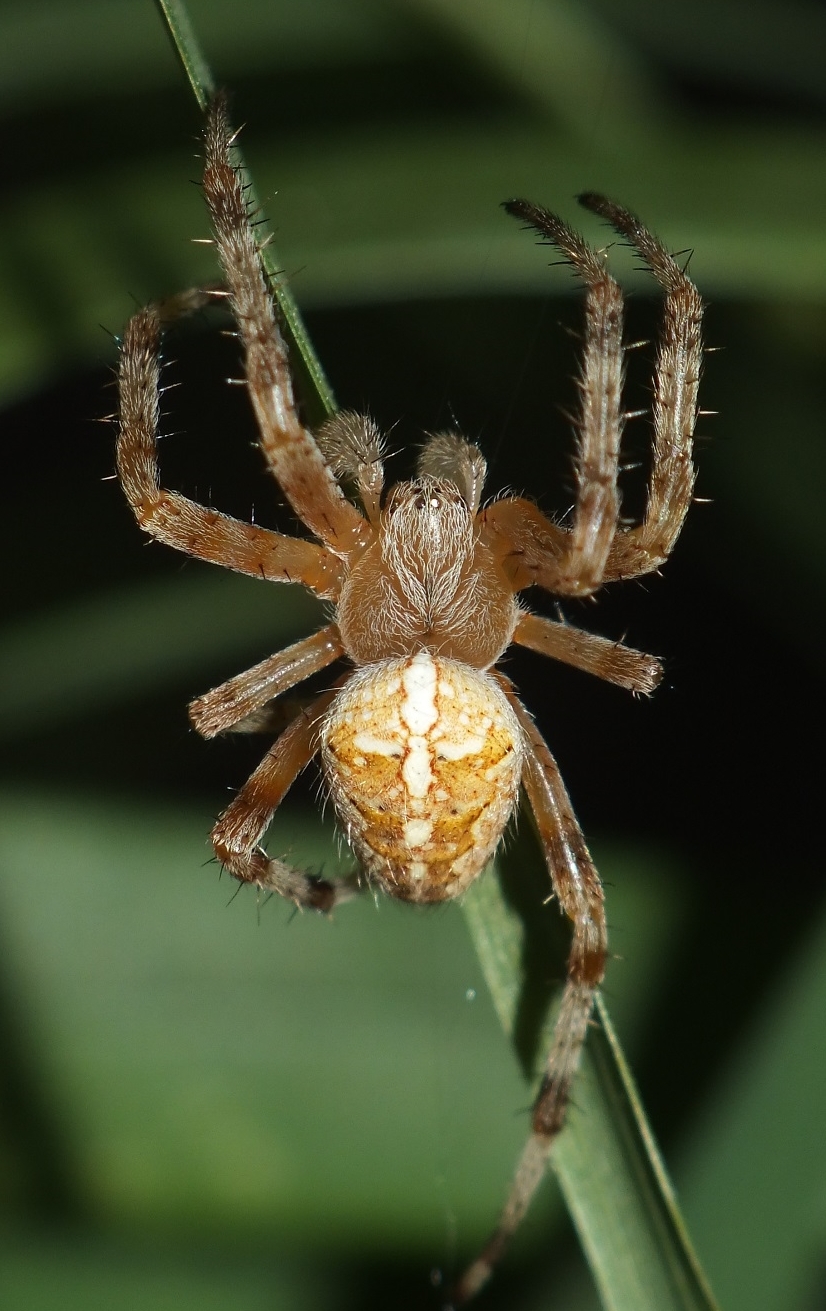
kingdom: Animalia
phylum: Arthropoda
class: Arachnida
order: Araneae
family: Araneidae
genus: Araneus
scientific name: Araneus diadematus
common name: Cross orbweaver
